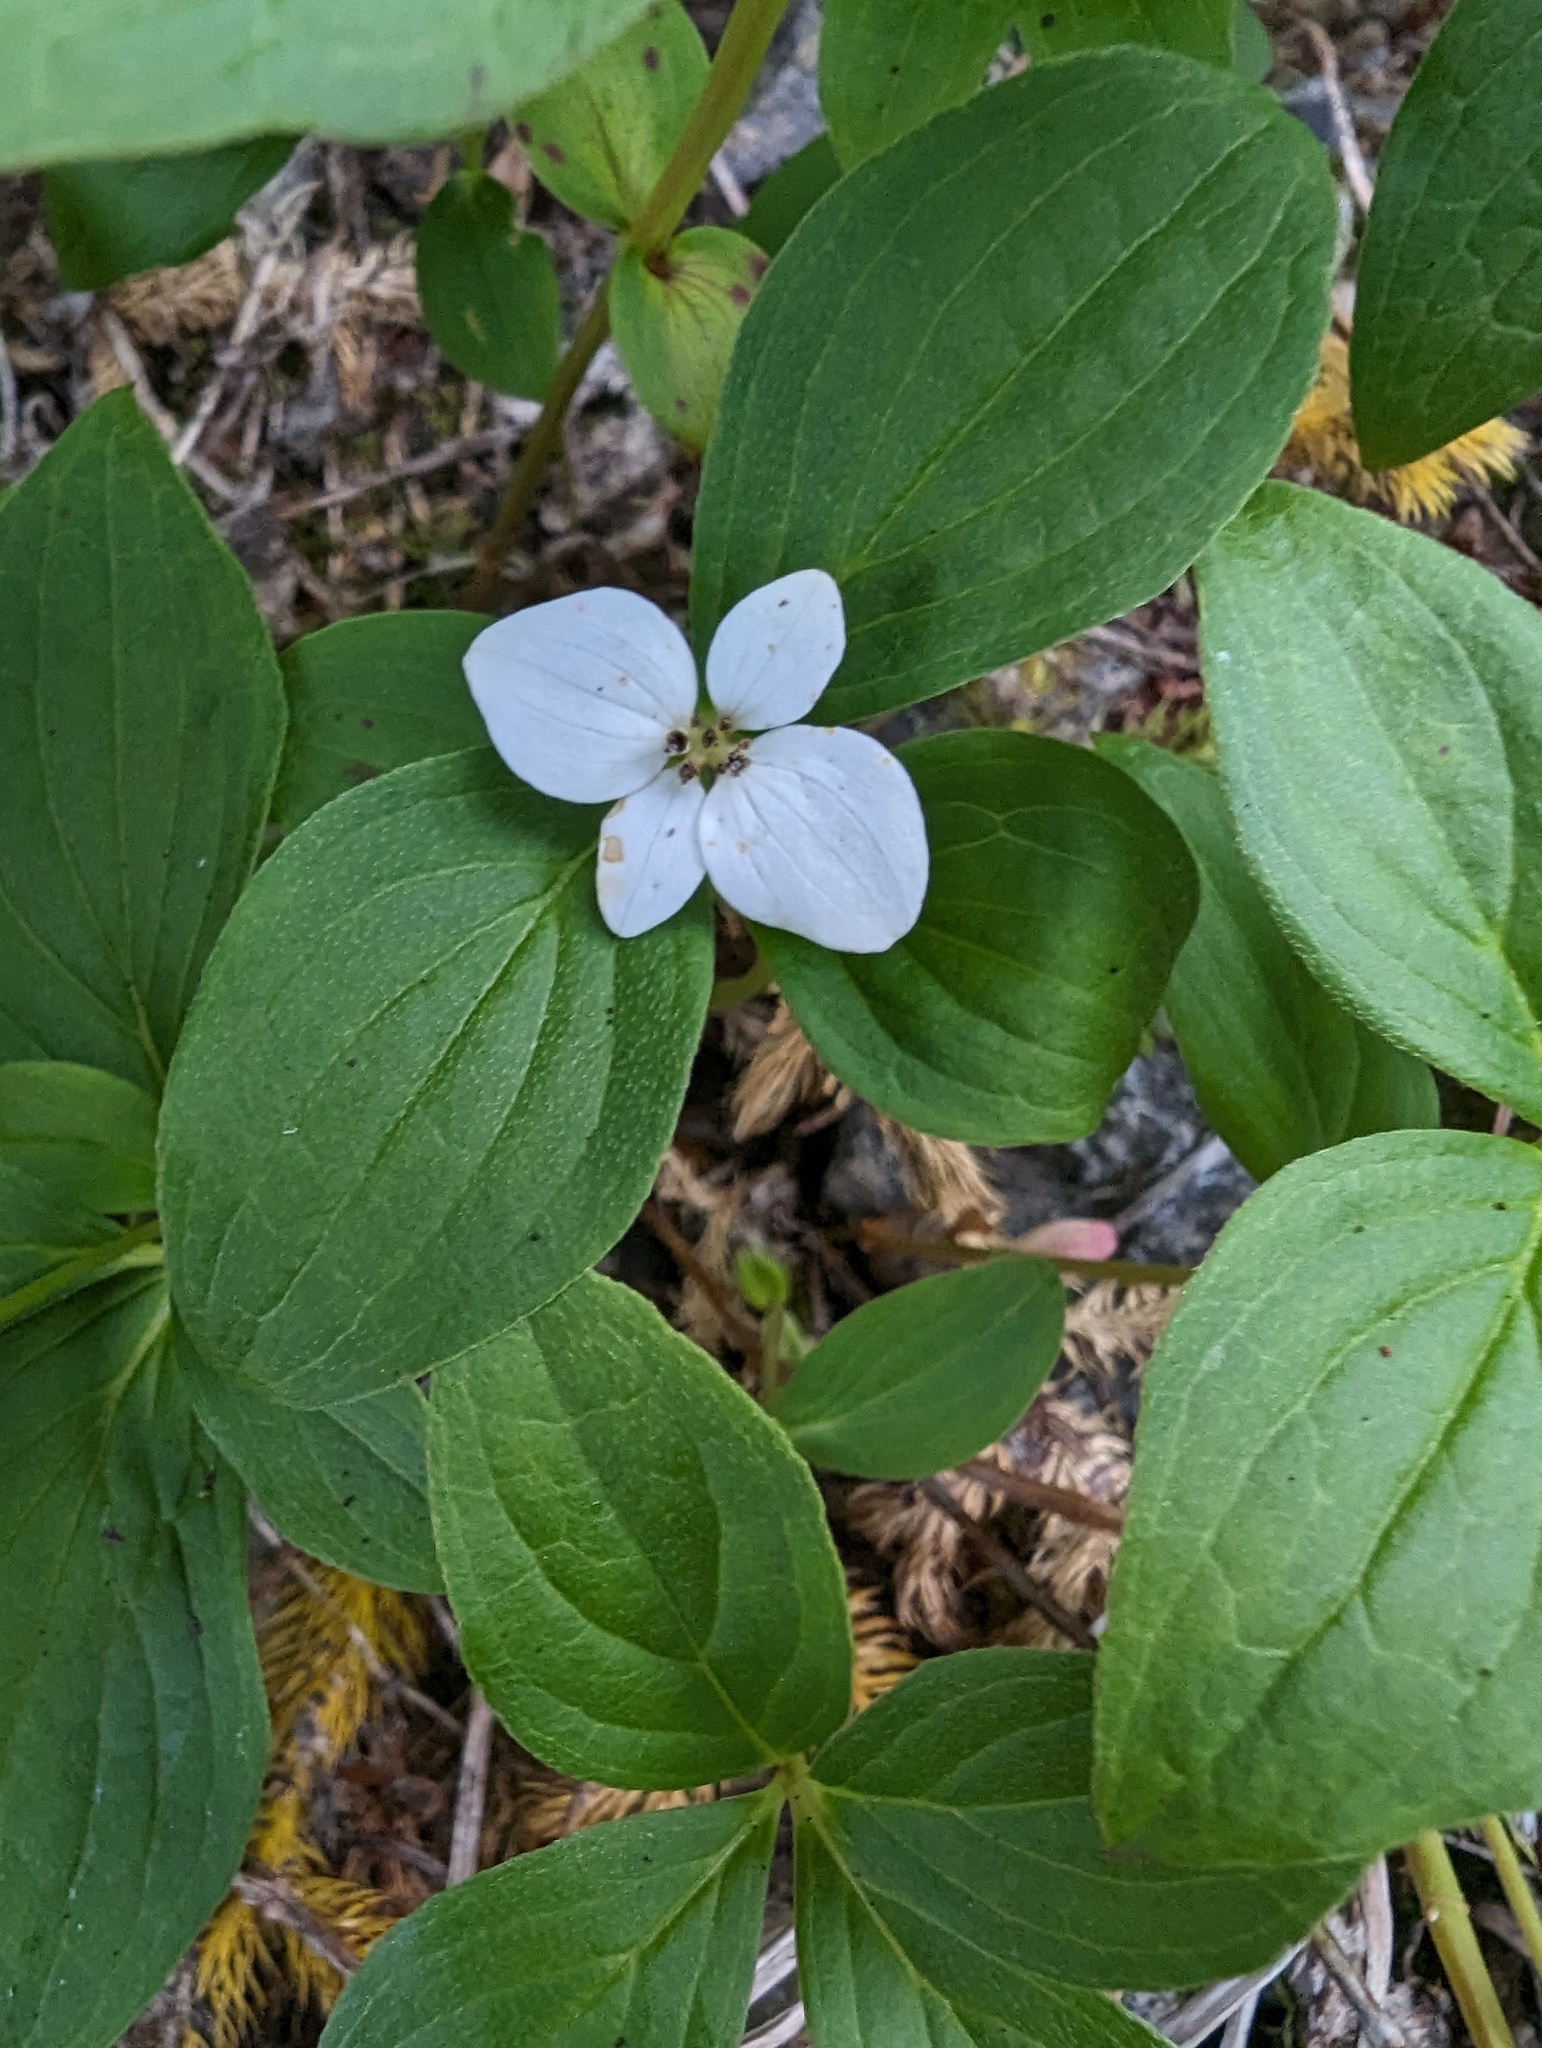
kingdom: Plantae
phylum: Tracheophyta
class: Magnoliopsida
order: Cornales
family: Cornaceae
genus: Cornus
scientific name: Cornus unalaschkensis
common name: Alaska bunchberry
